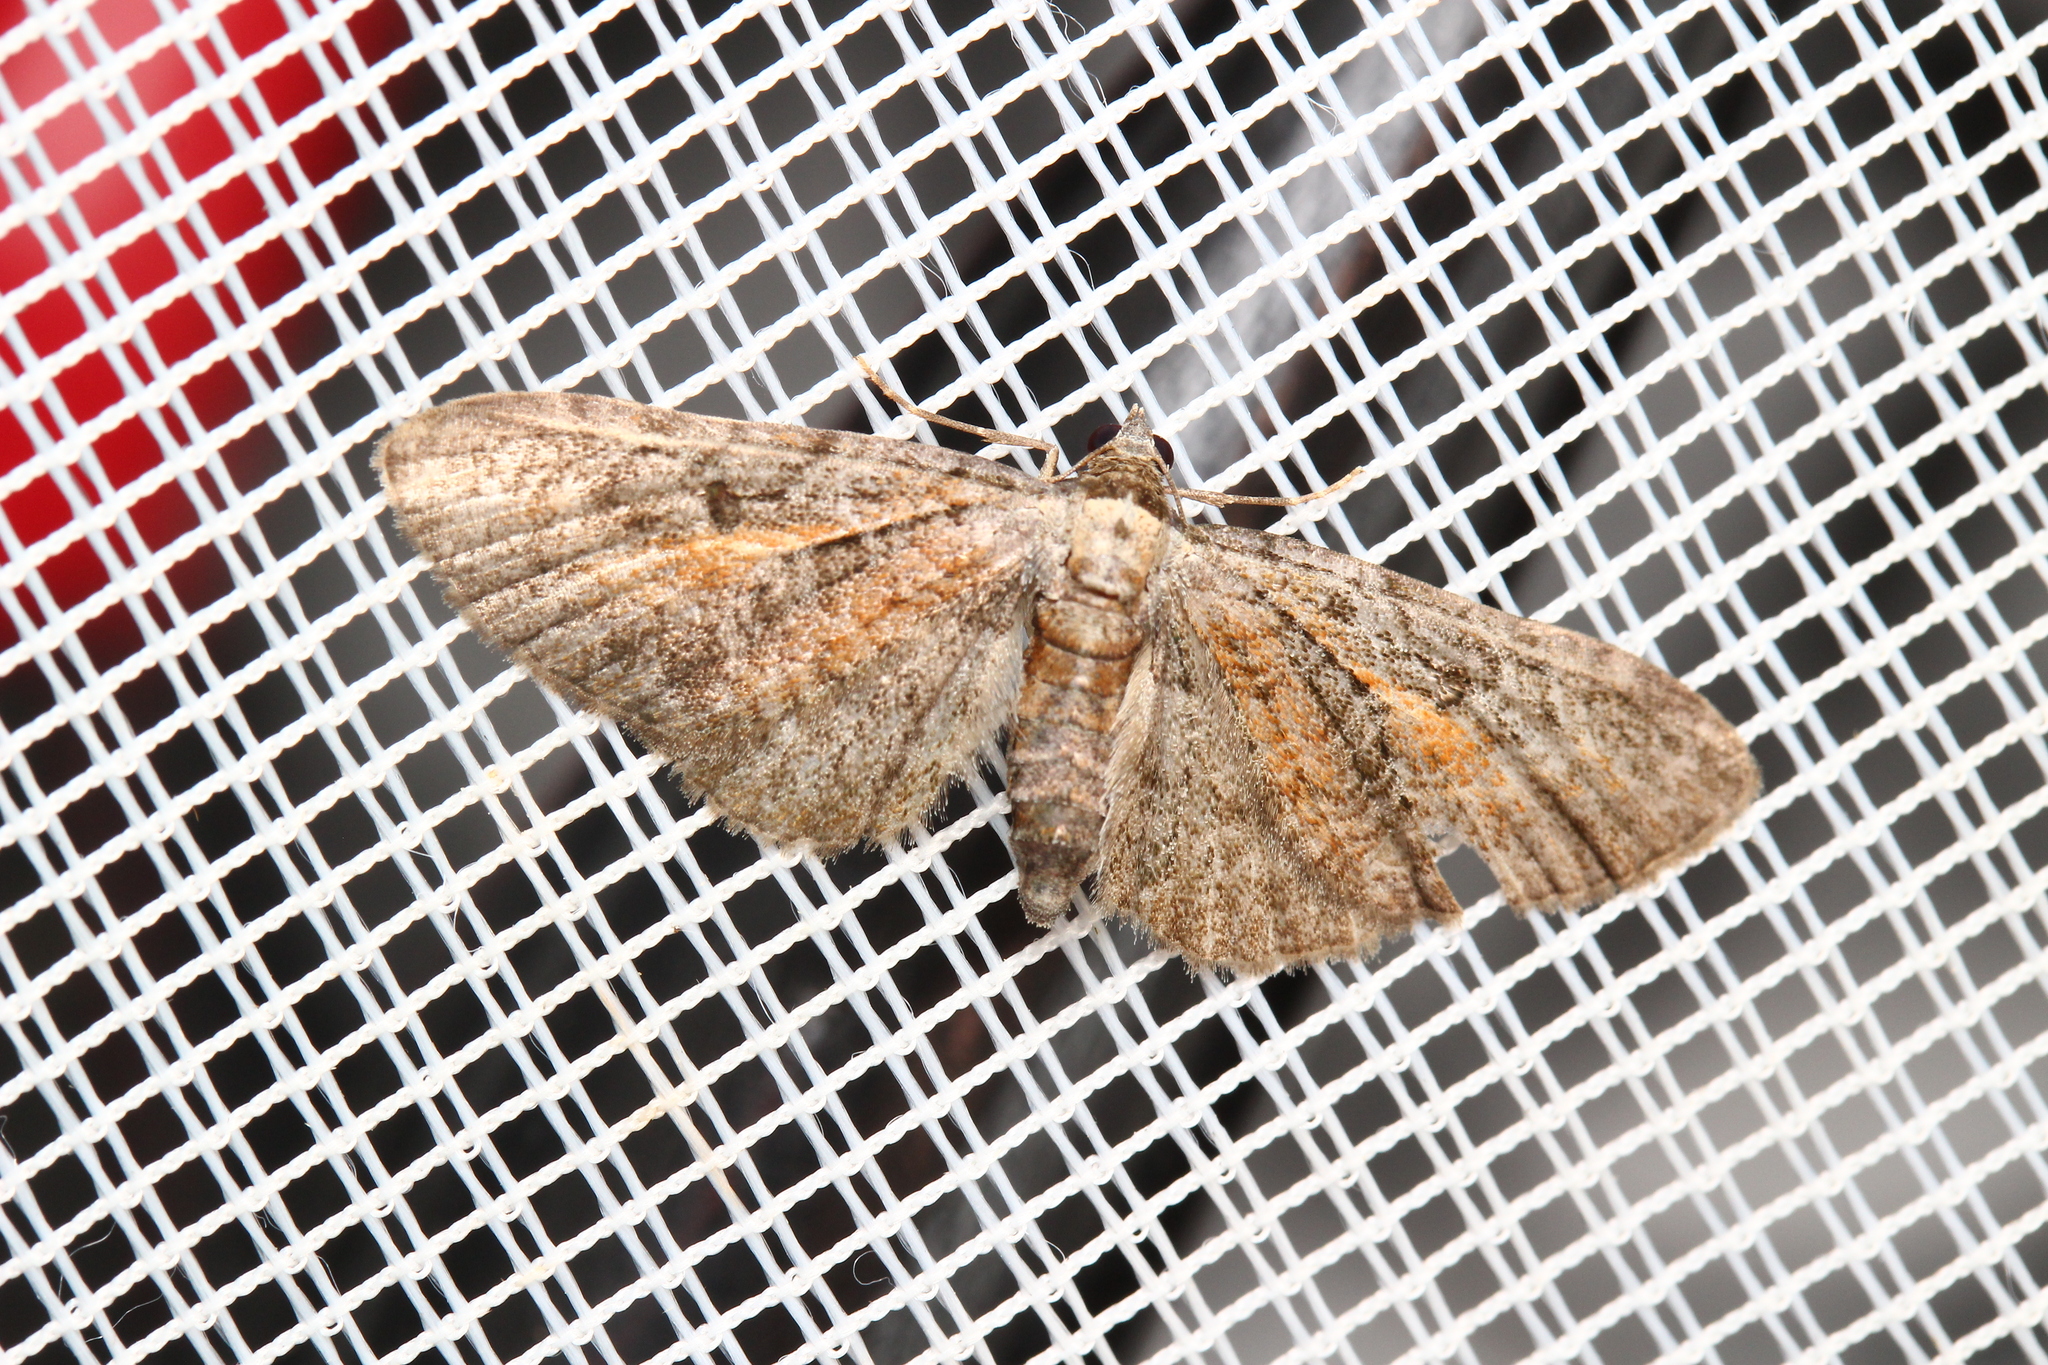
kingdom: Animalia
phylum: Arthropoda
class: Insecta
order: Lepidoptera
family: Geometridae
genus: Eupithecia
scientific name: Eupithecia icterata
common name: Tawny speckled pug
